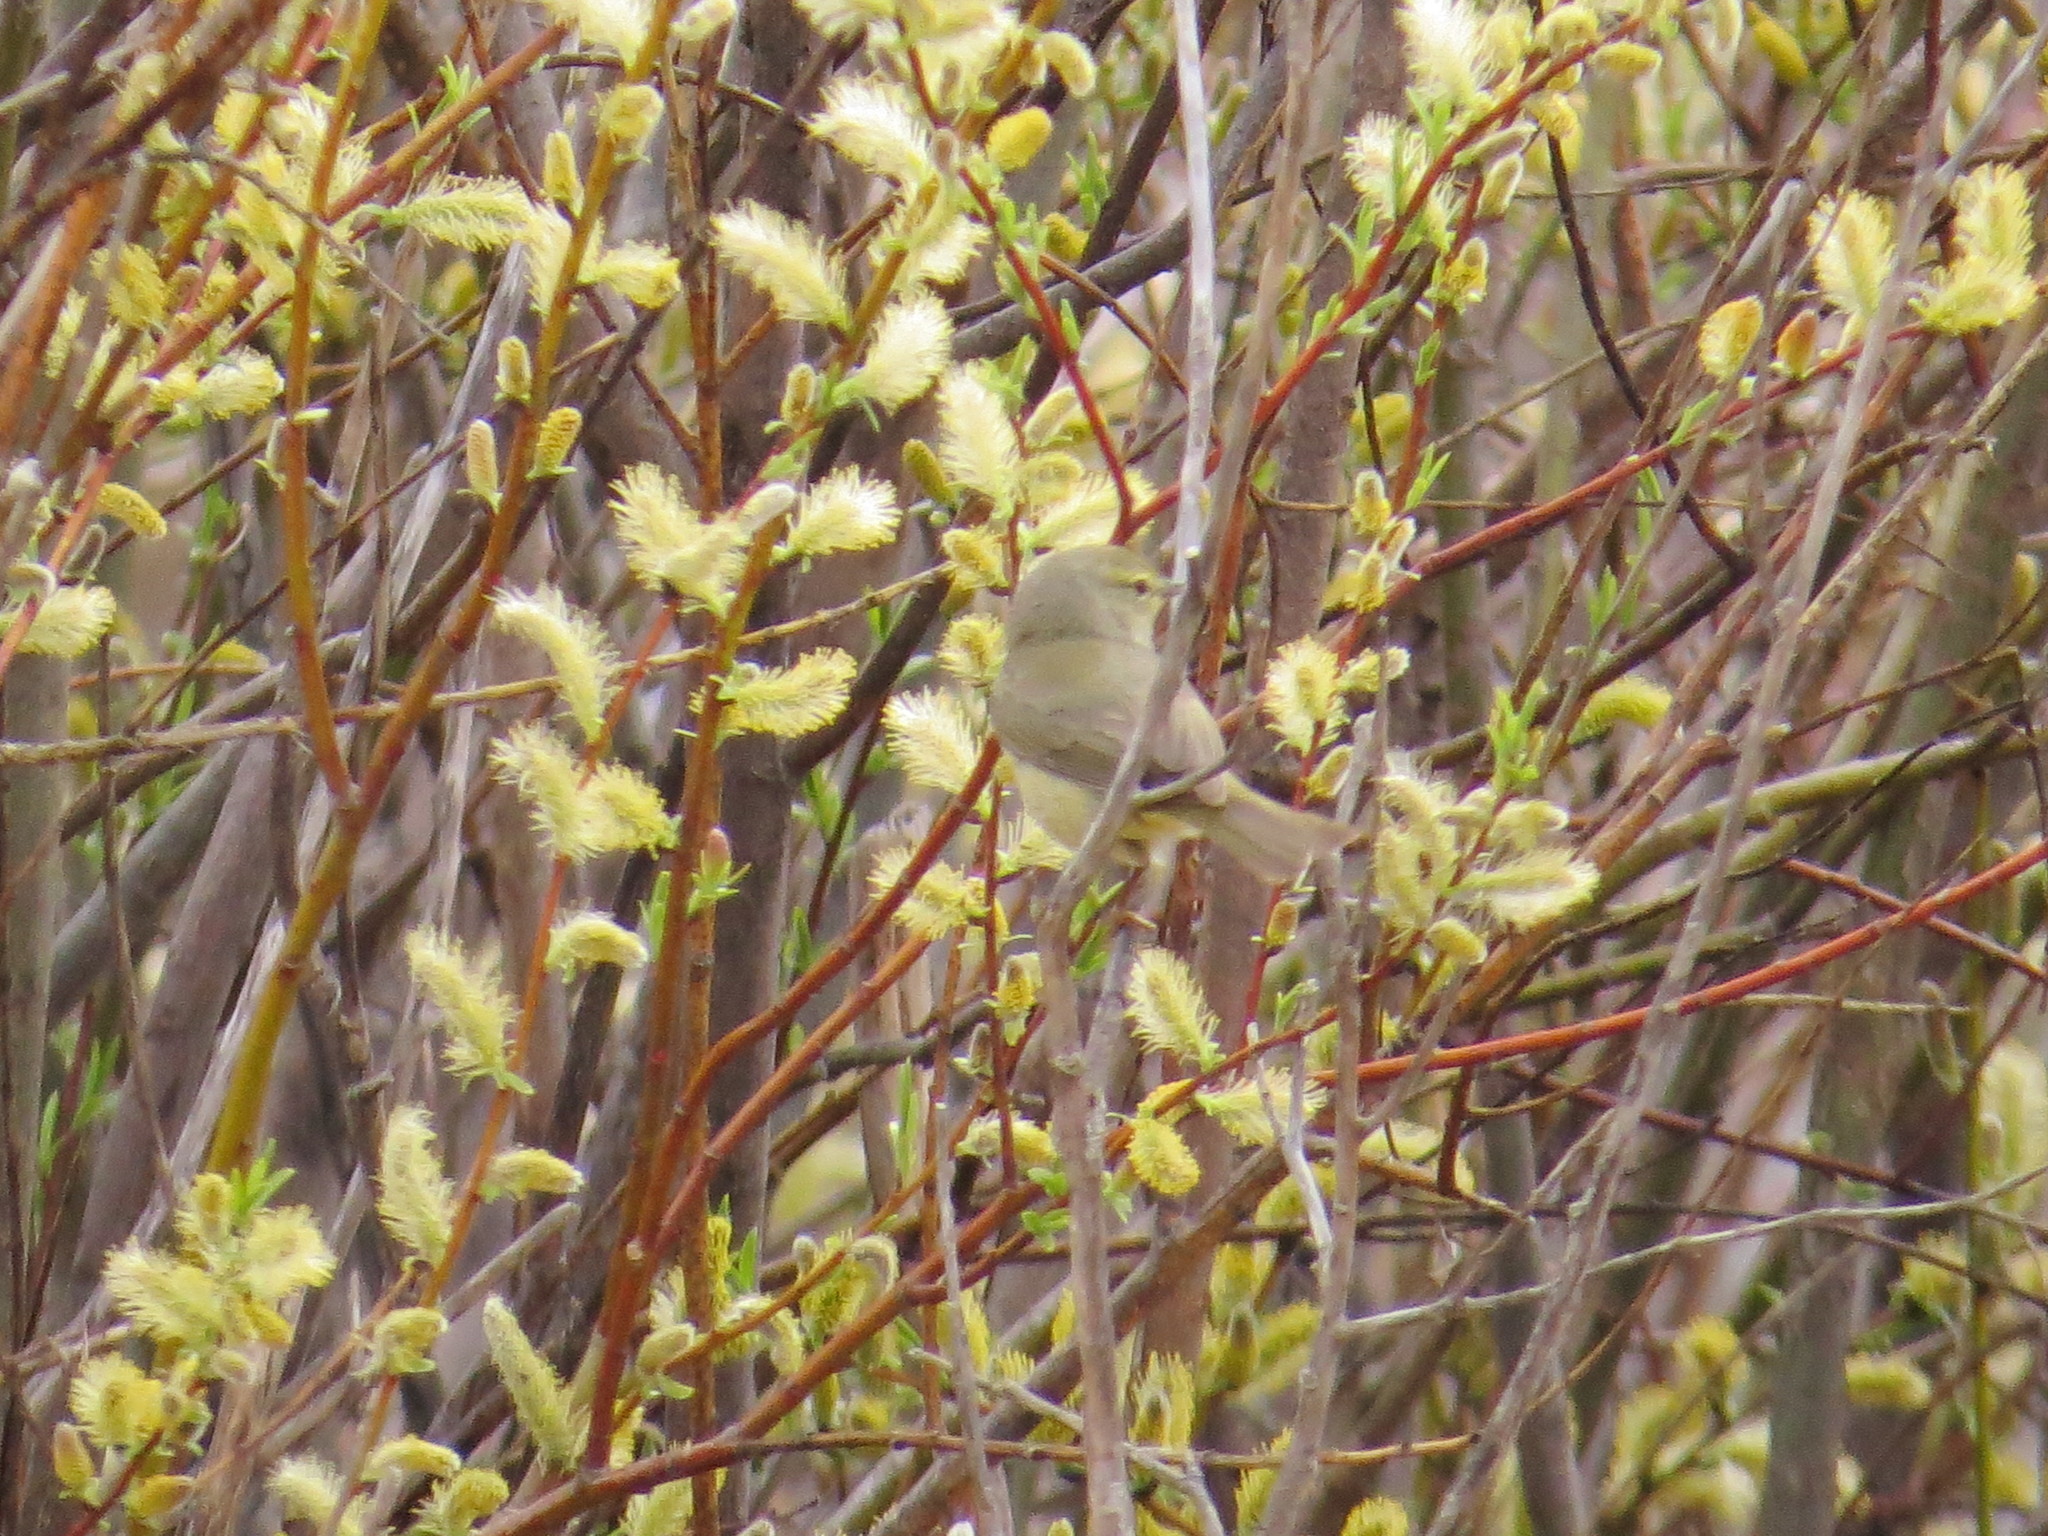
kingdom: Animalia
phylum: Chordata
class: Aves
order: Passeriformes
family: Parulidae
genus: Leiothlypis
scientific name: Leiothlypis celata
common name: Orange-crowned warbler
